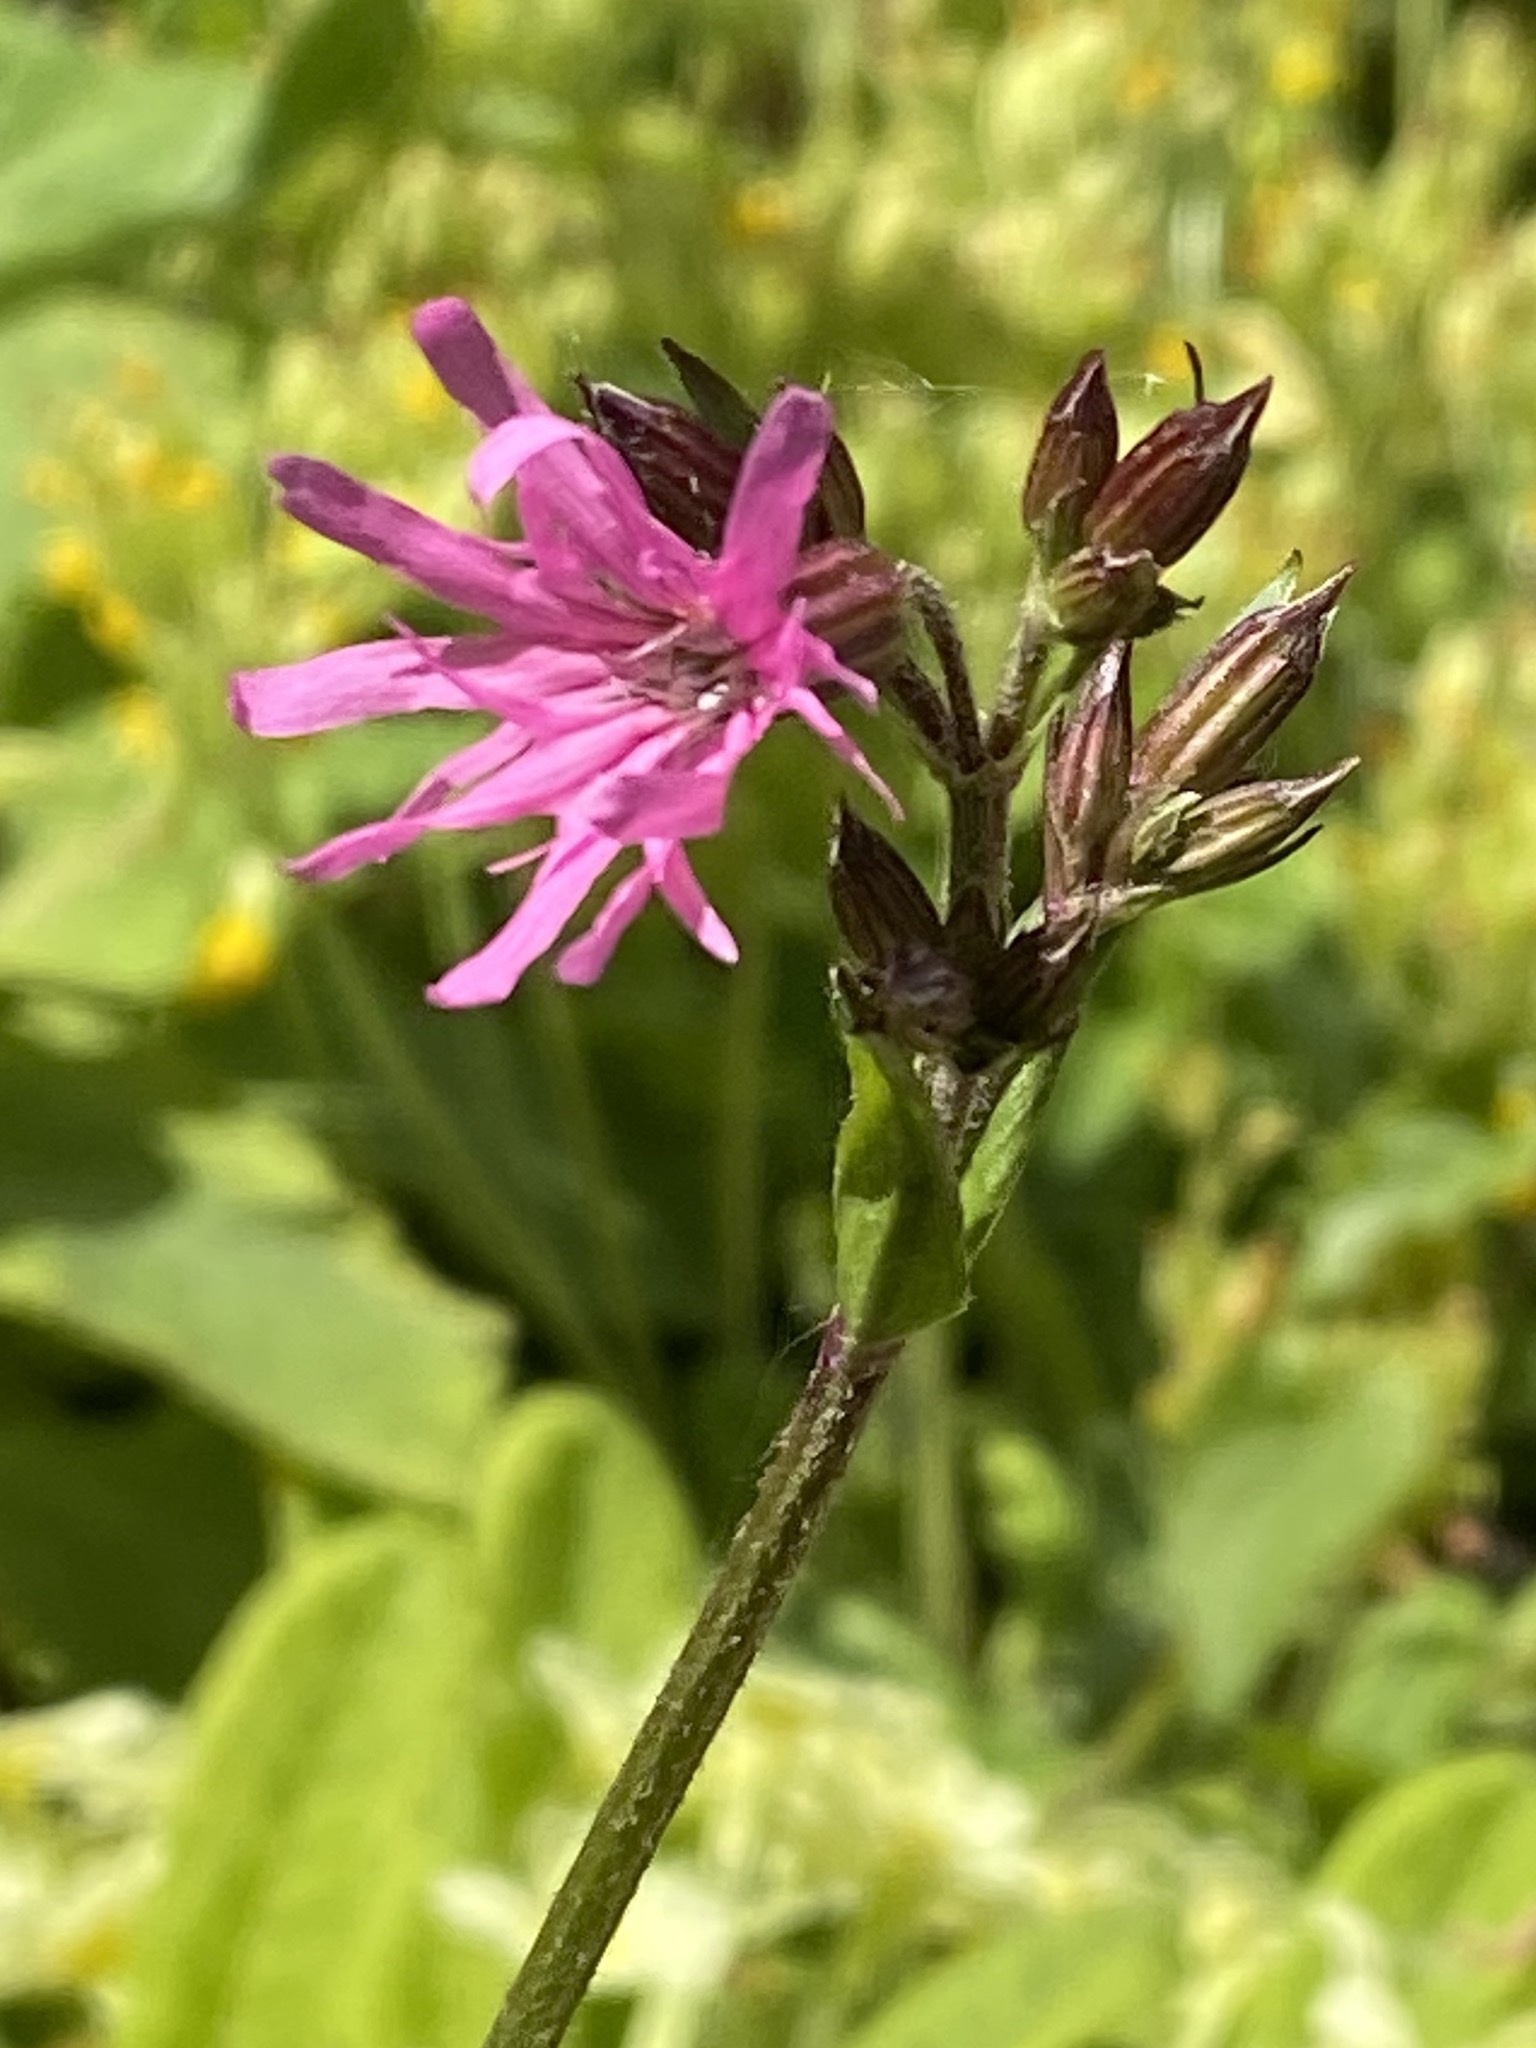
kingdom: Plantae
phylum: Tracheophyta
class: Magnoliopsida
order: Caryophyllales
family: Caryophyllaceae
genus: Silene
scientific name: Silene flos-cuculi
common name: Ragged-robin
